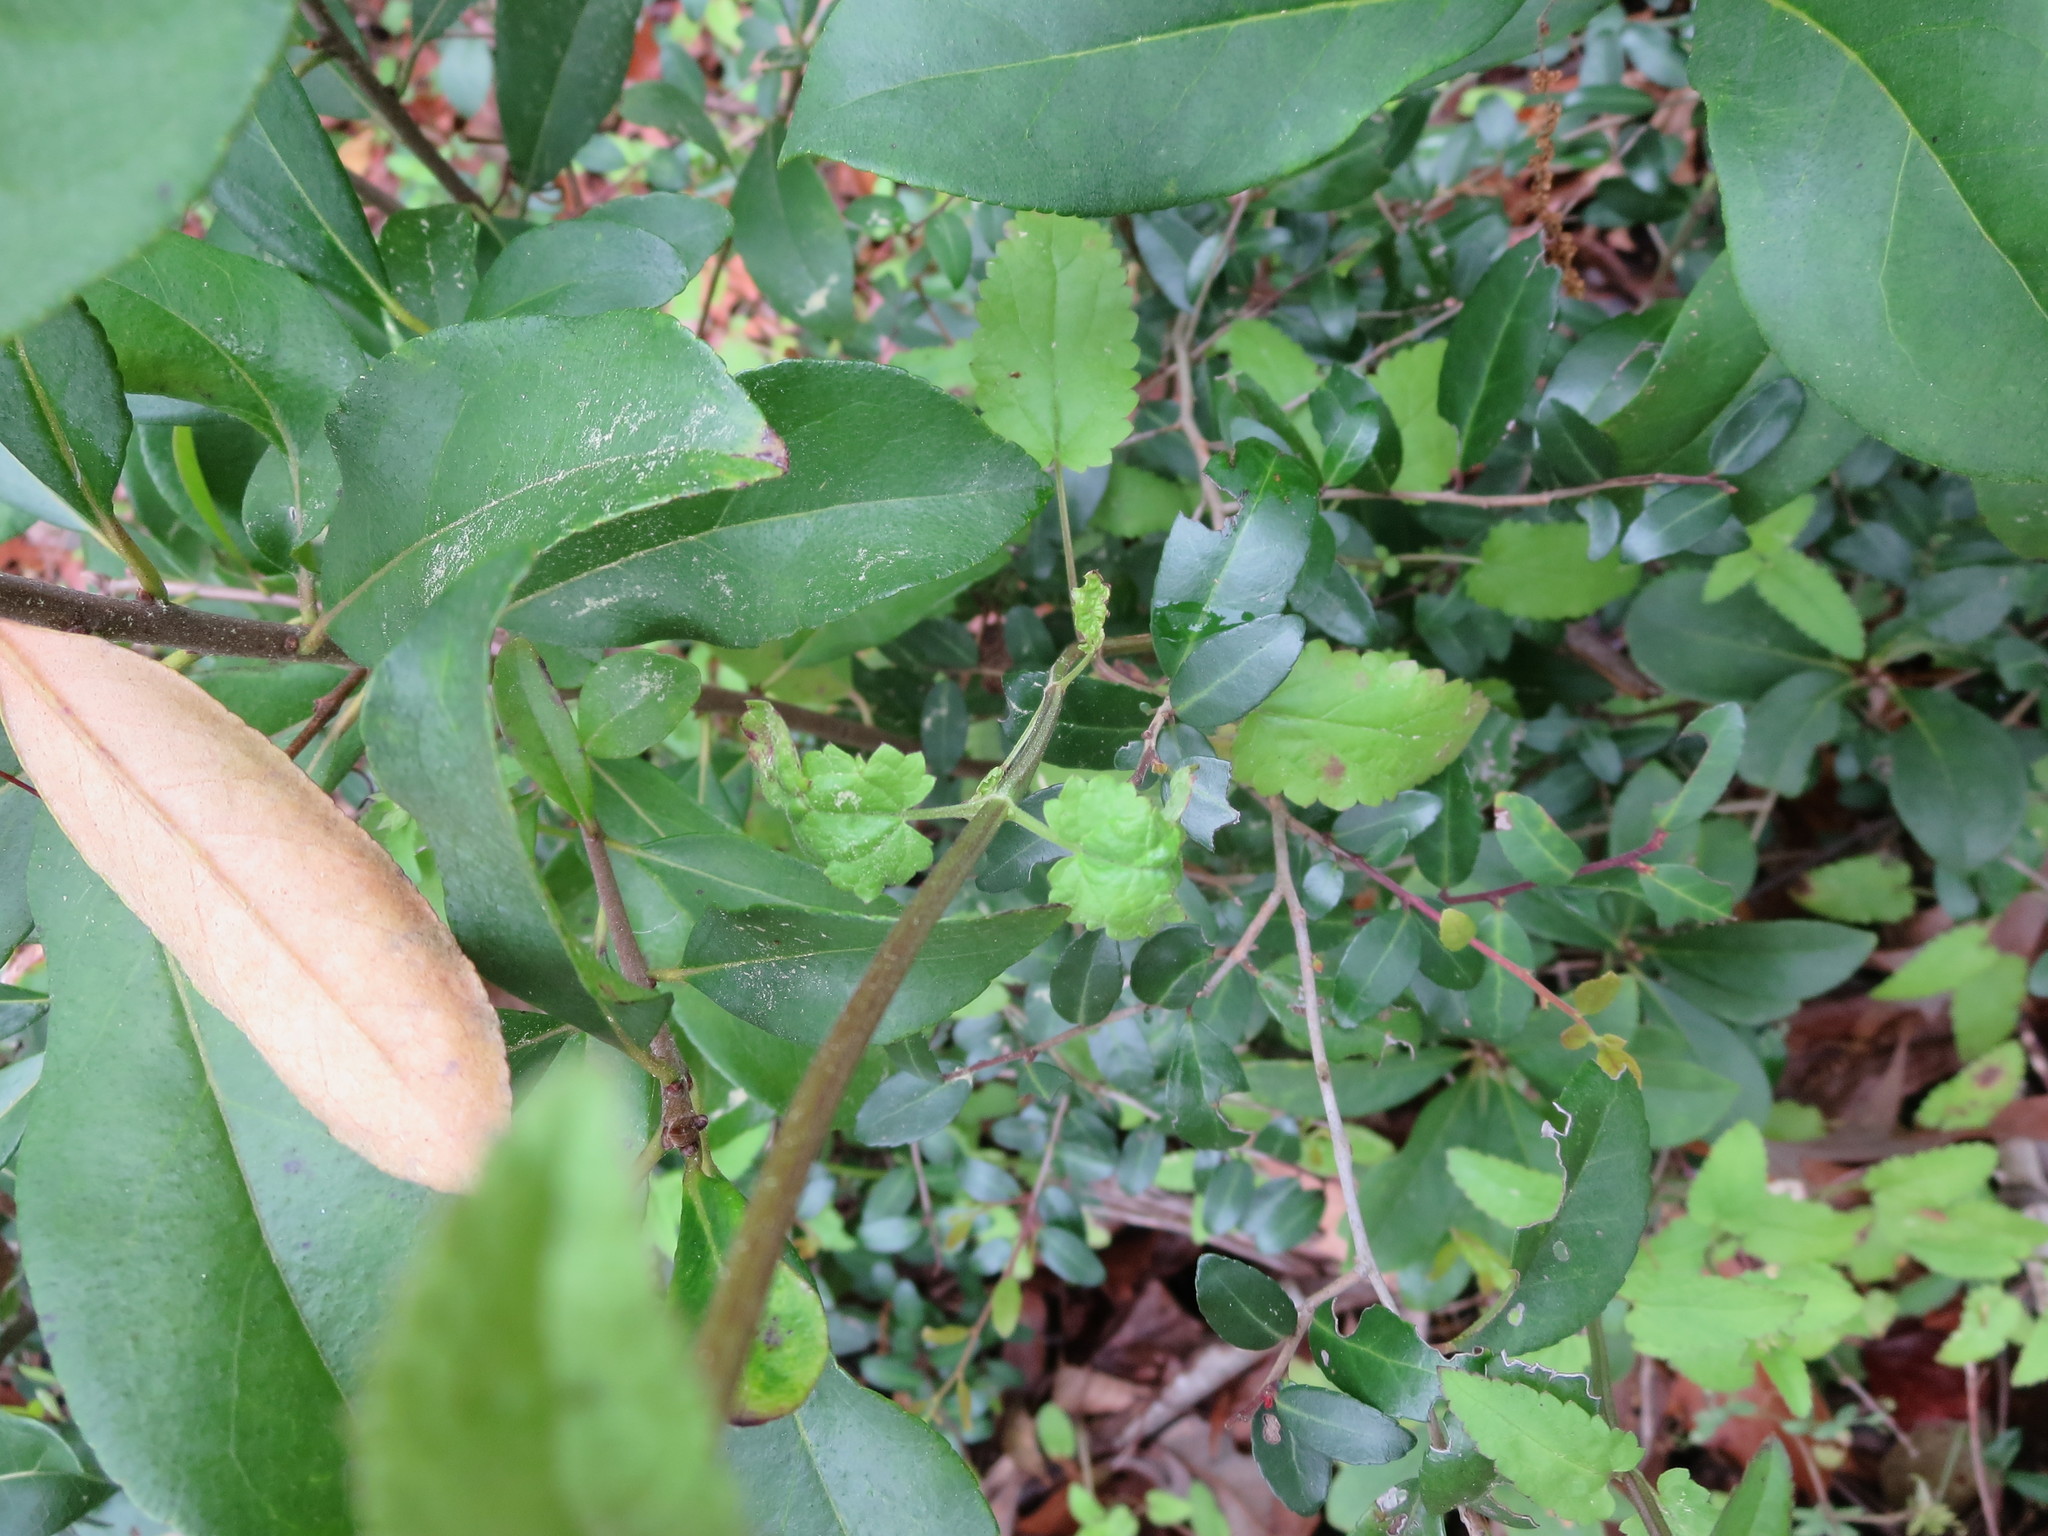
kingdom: Plantae
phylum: Tracheophyta
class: Magnoliopsida
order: Lamiales
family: Lamiaceae
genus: Stachys
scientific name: Stachys floridana
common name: Florida betony
